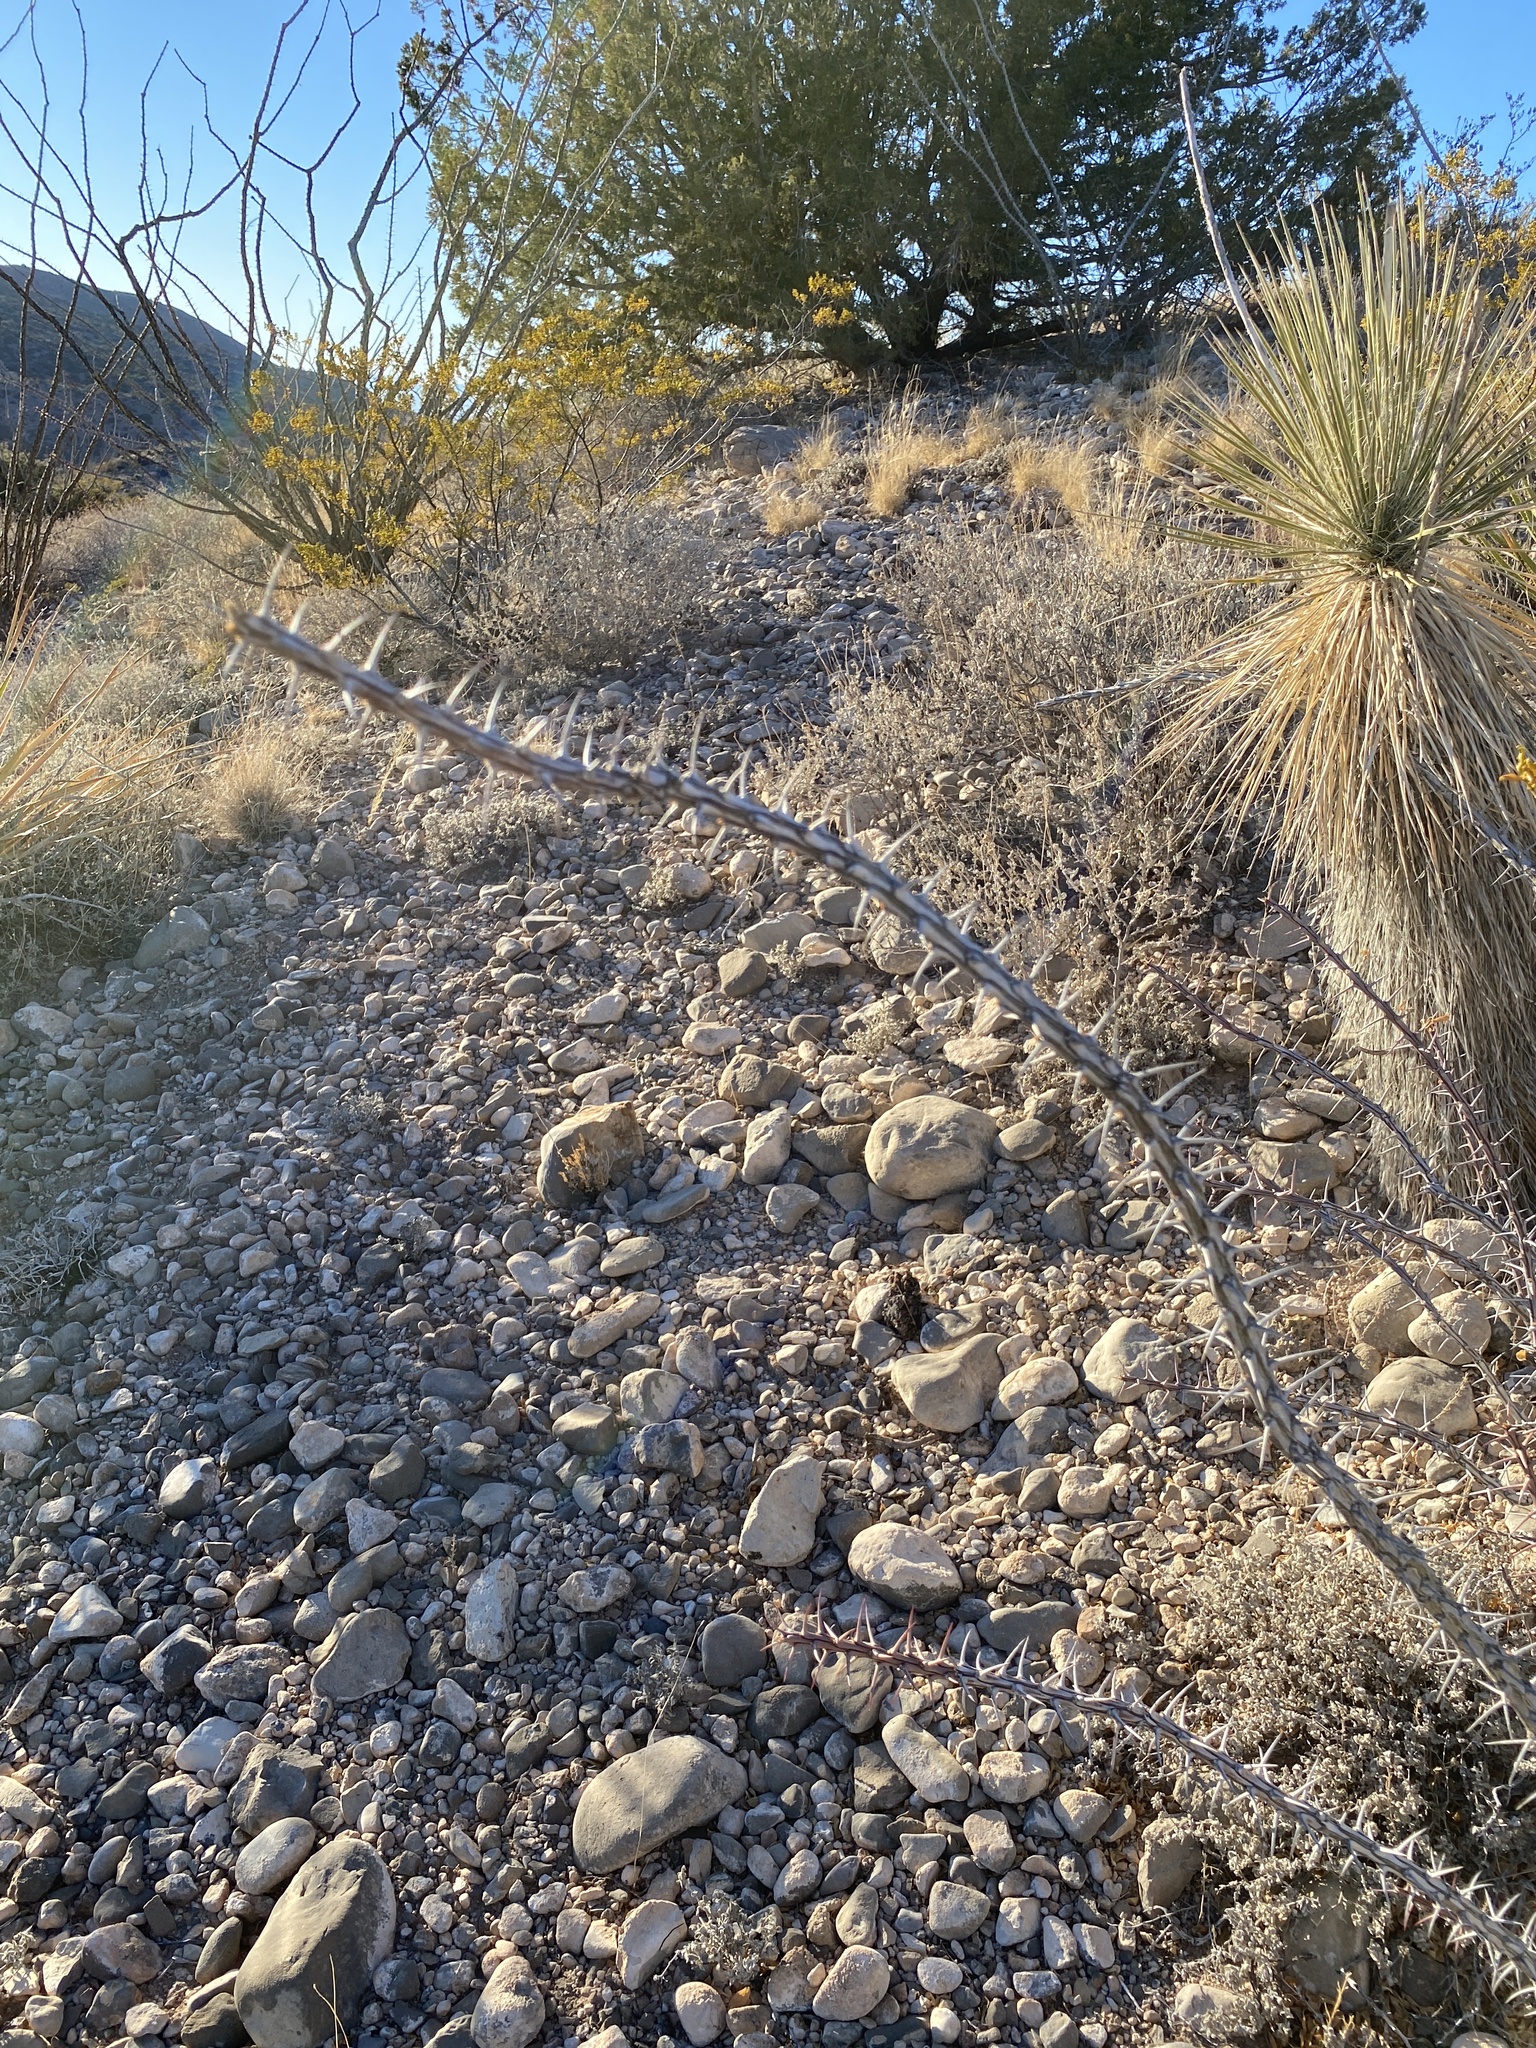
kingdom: Plantae
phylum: Tracheophyta
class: Magnoliopsida
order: Ericales
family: Fouquieriaceae
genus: Fouquieria
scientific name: Fouquieria splendens
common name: Vine-cactus
